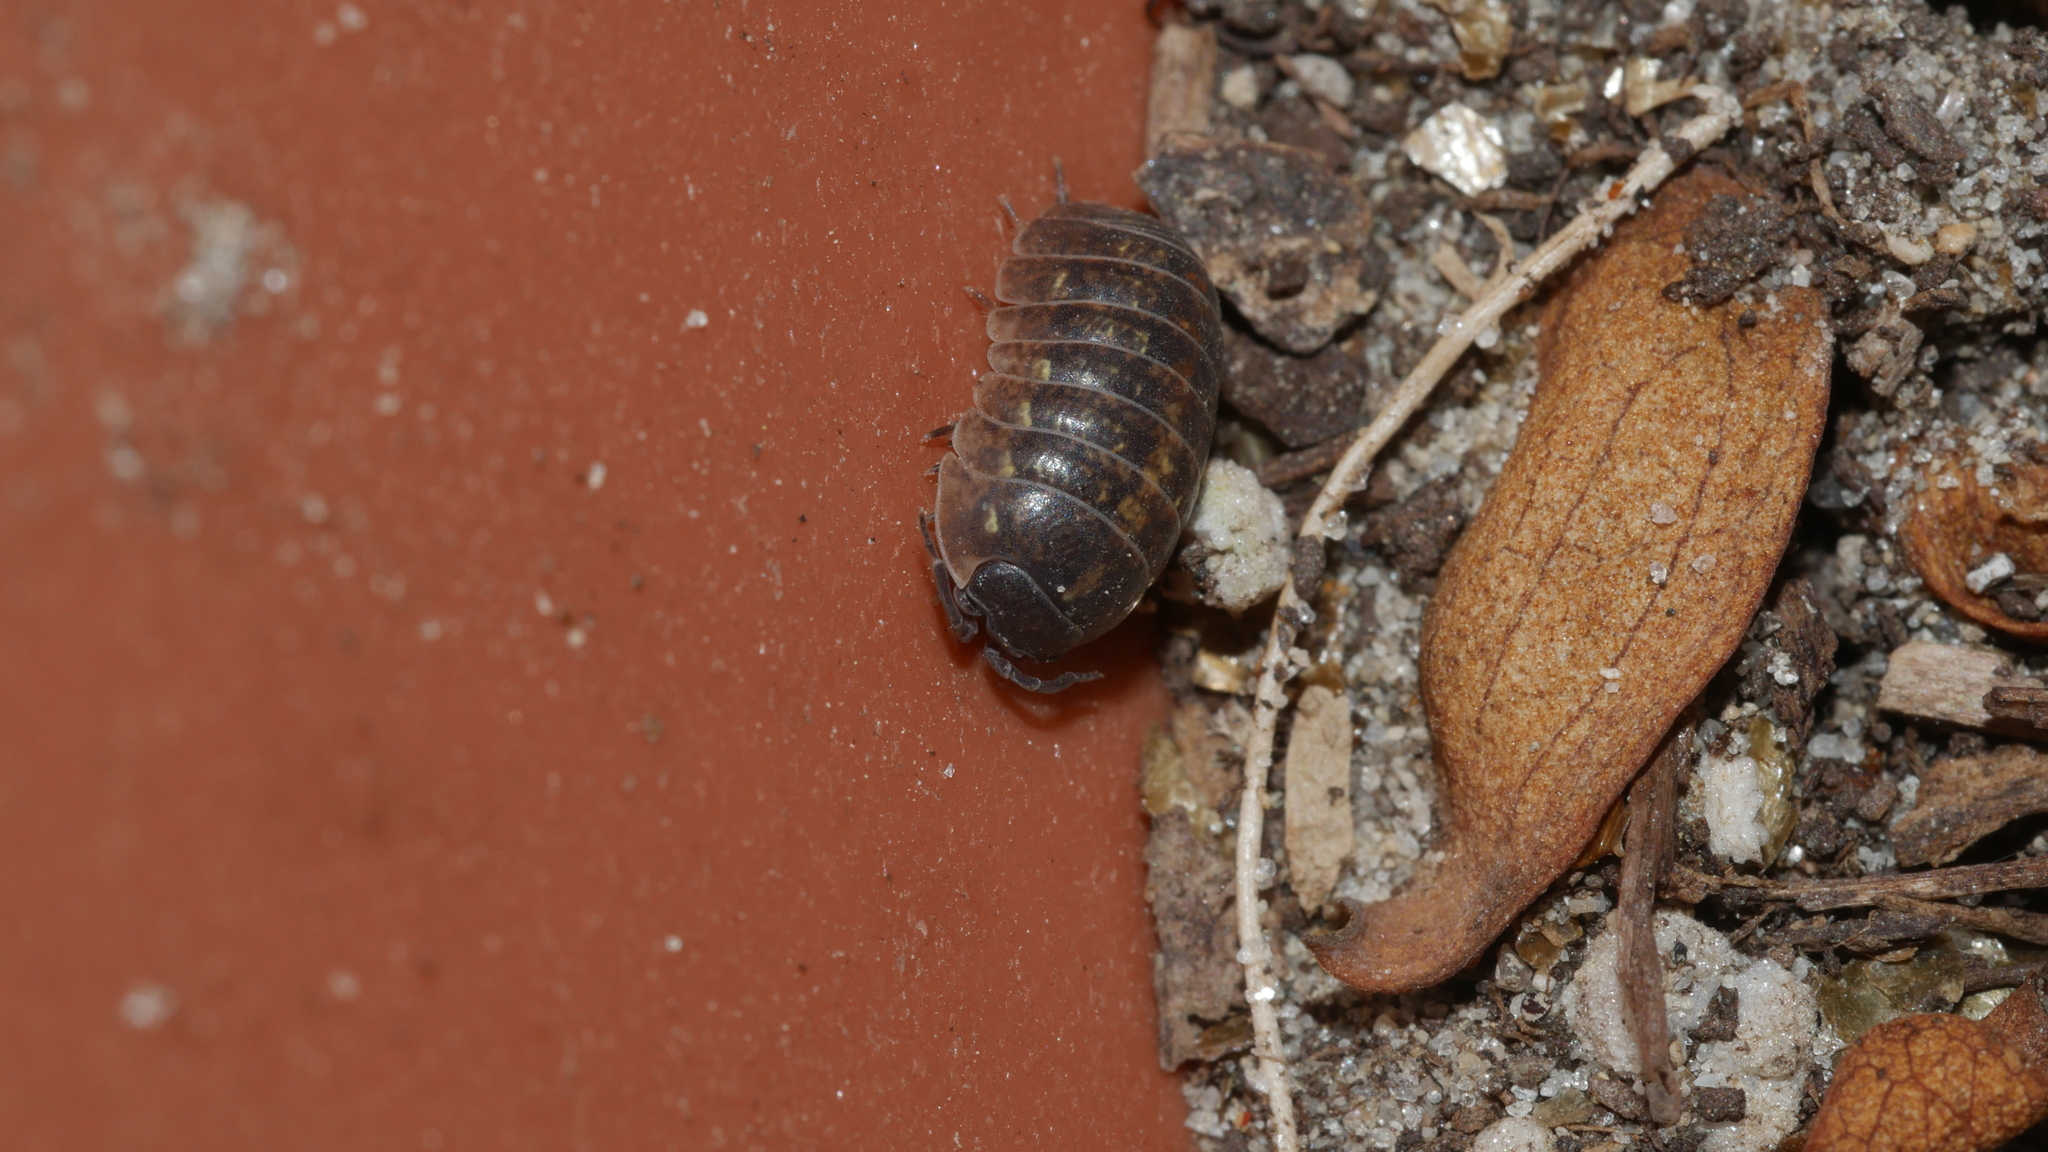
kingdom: Animalia
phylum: Arthropoda
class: Malacostraca
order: Isopoda
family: Armadillidiidae
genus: Armadillidium
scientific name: Armadillidium vulgare
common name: Common pill woodlouse
